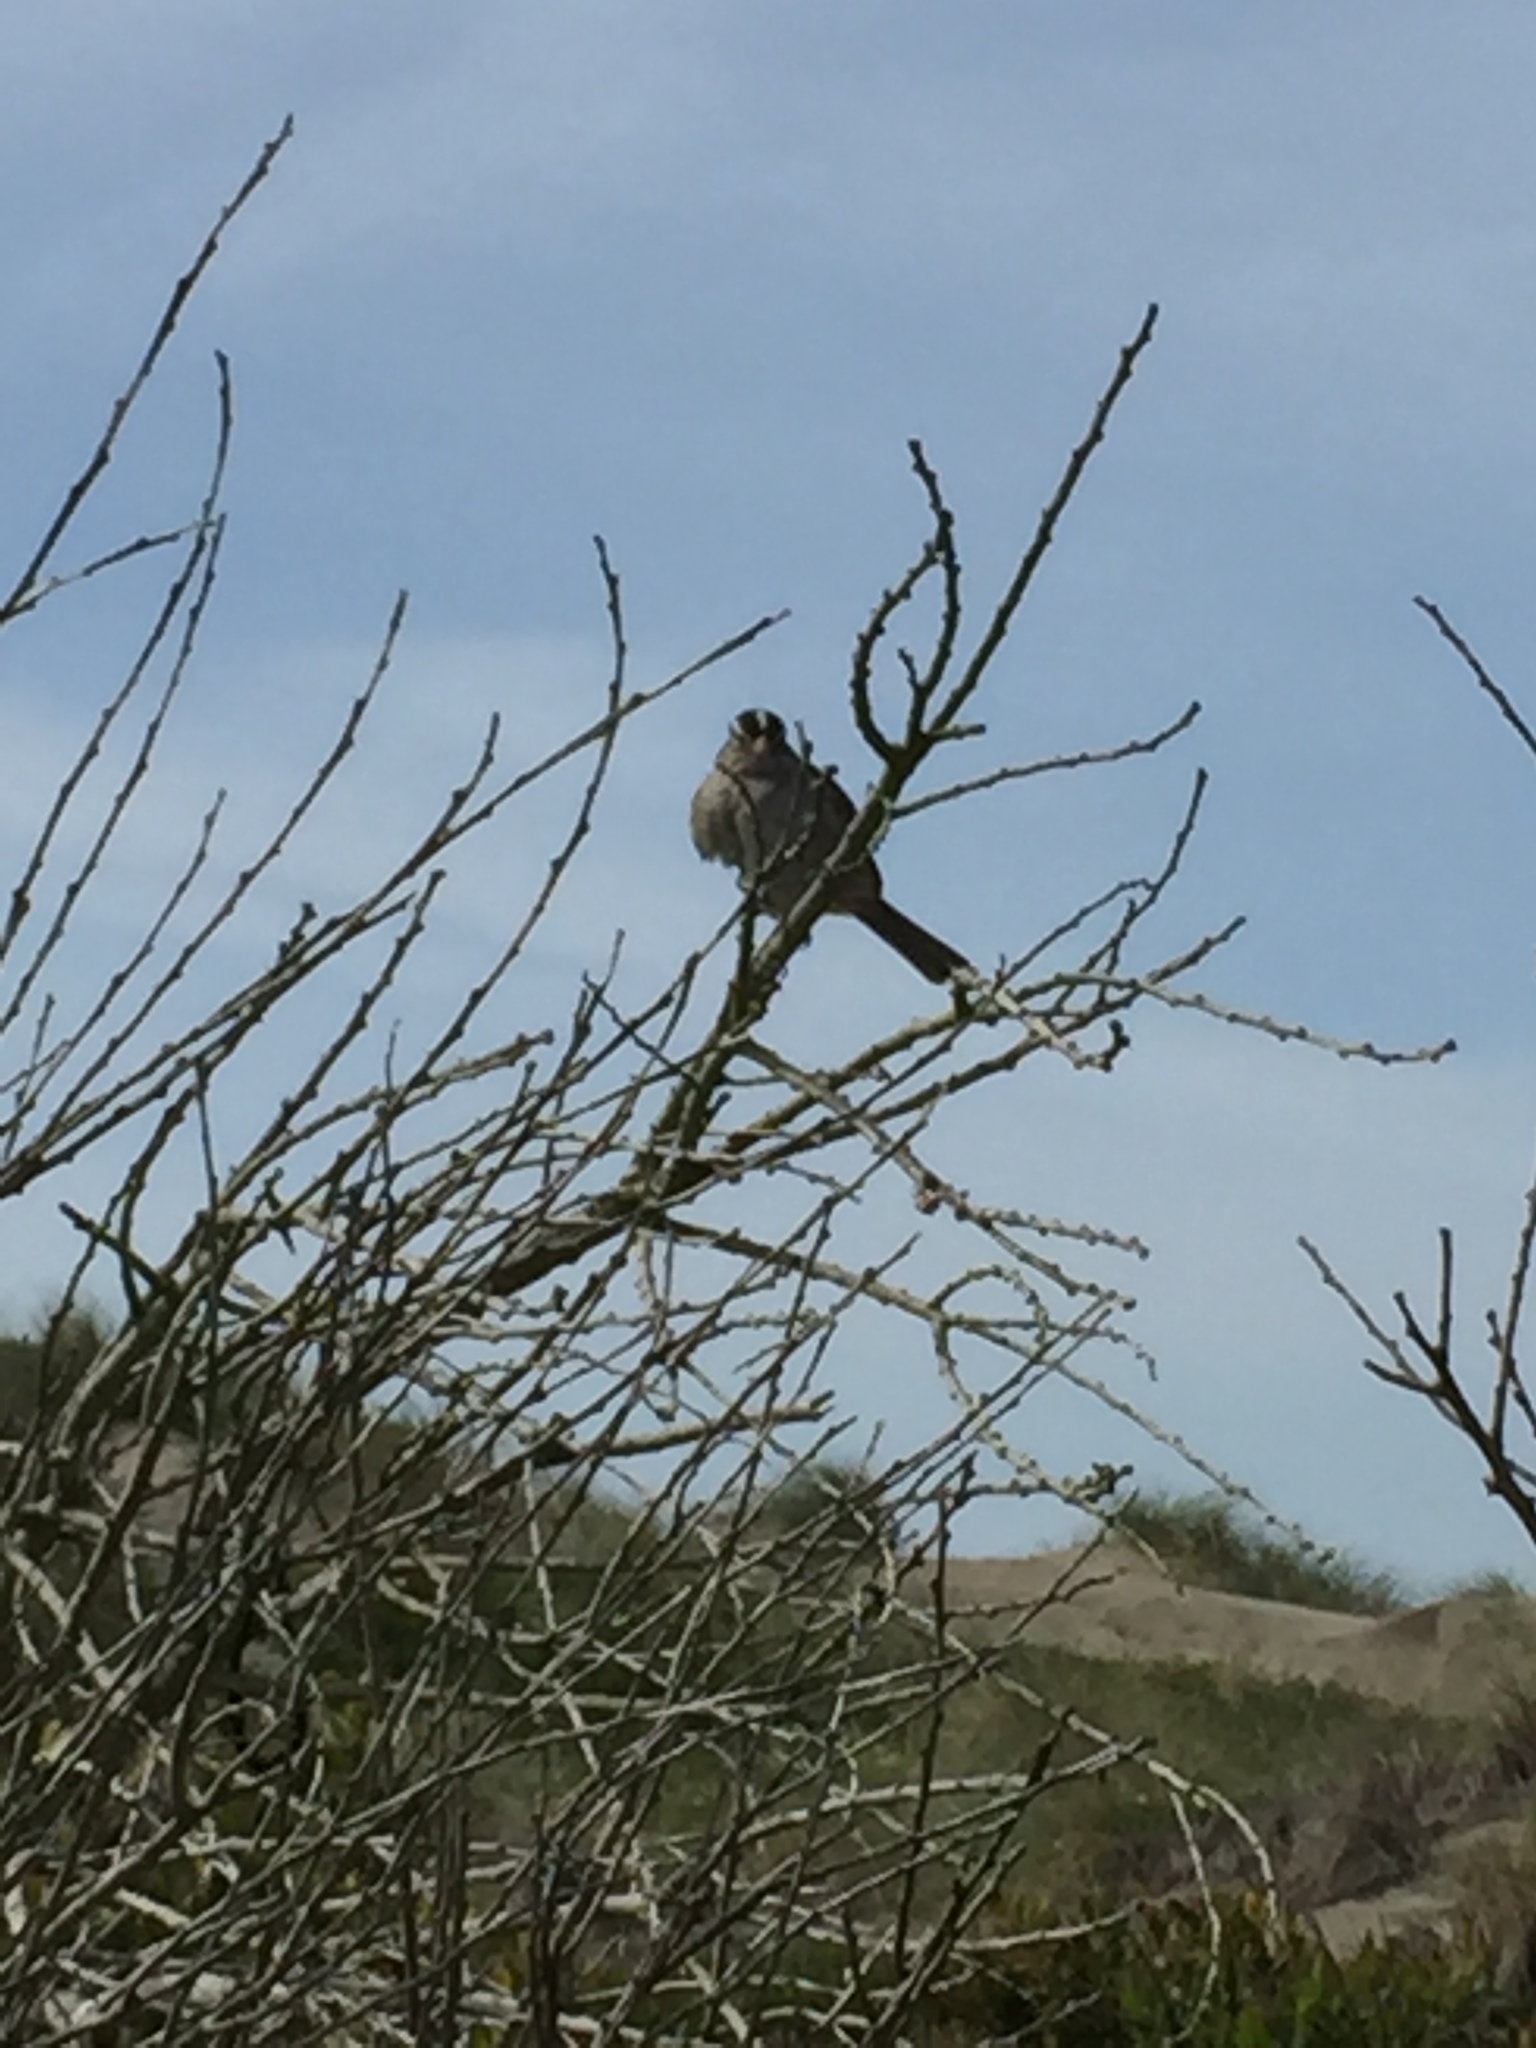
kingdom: Animalia
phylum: Chordata
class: Aves
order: Passeriformes
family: Passerellidae
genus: Zonotrichia
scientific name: Zonotrichia leucophrys
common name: White-crowned sparrow
